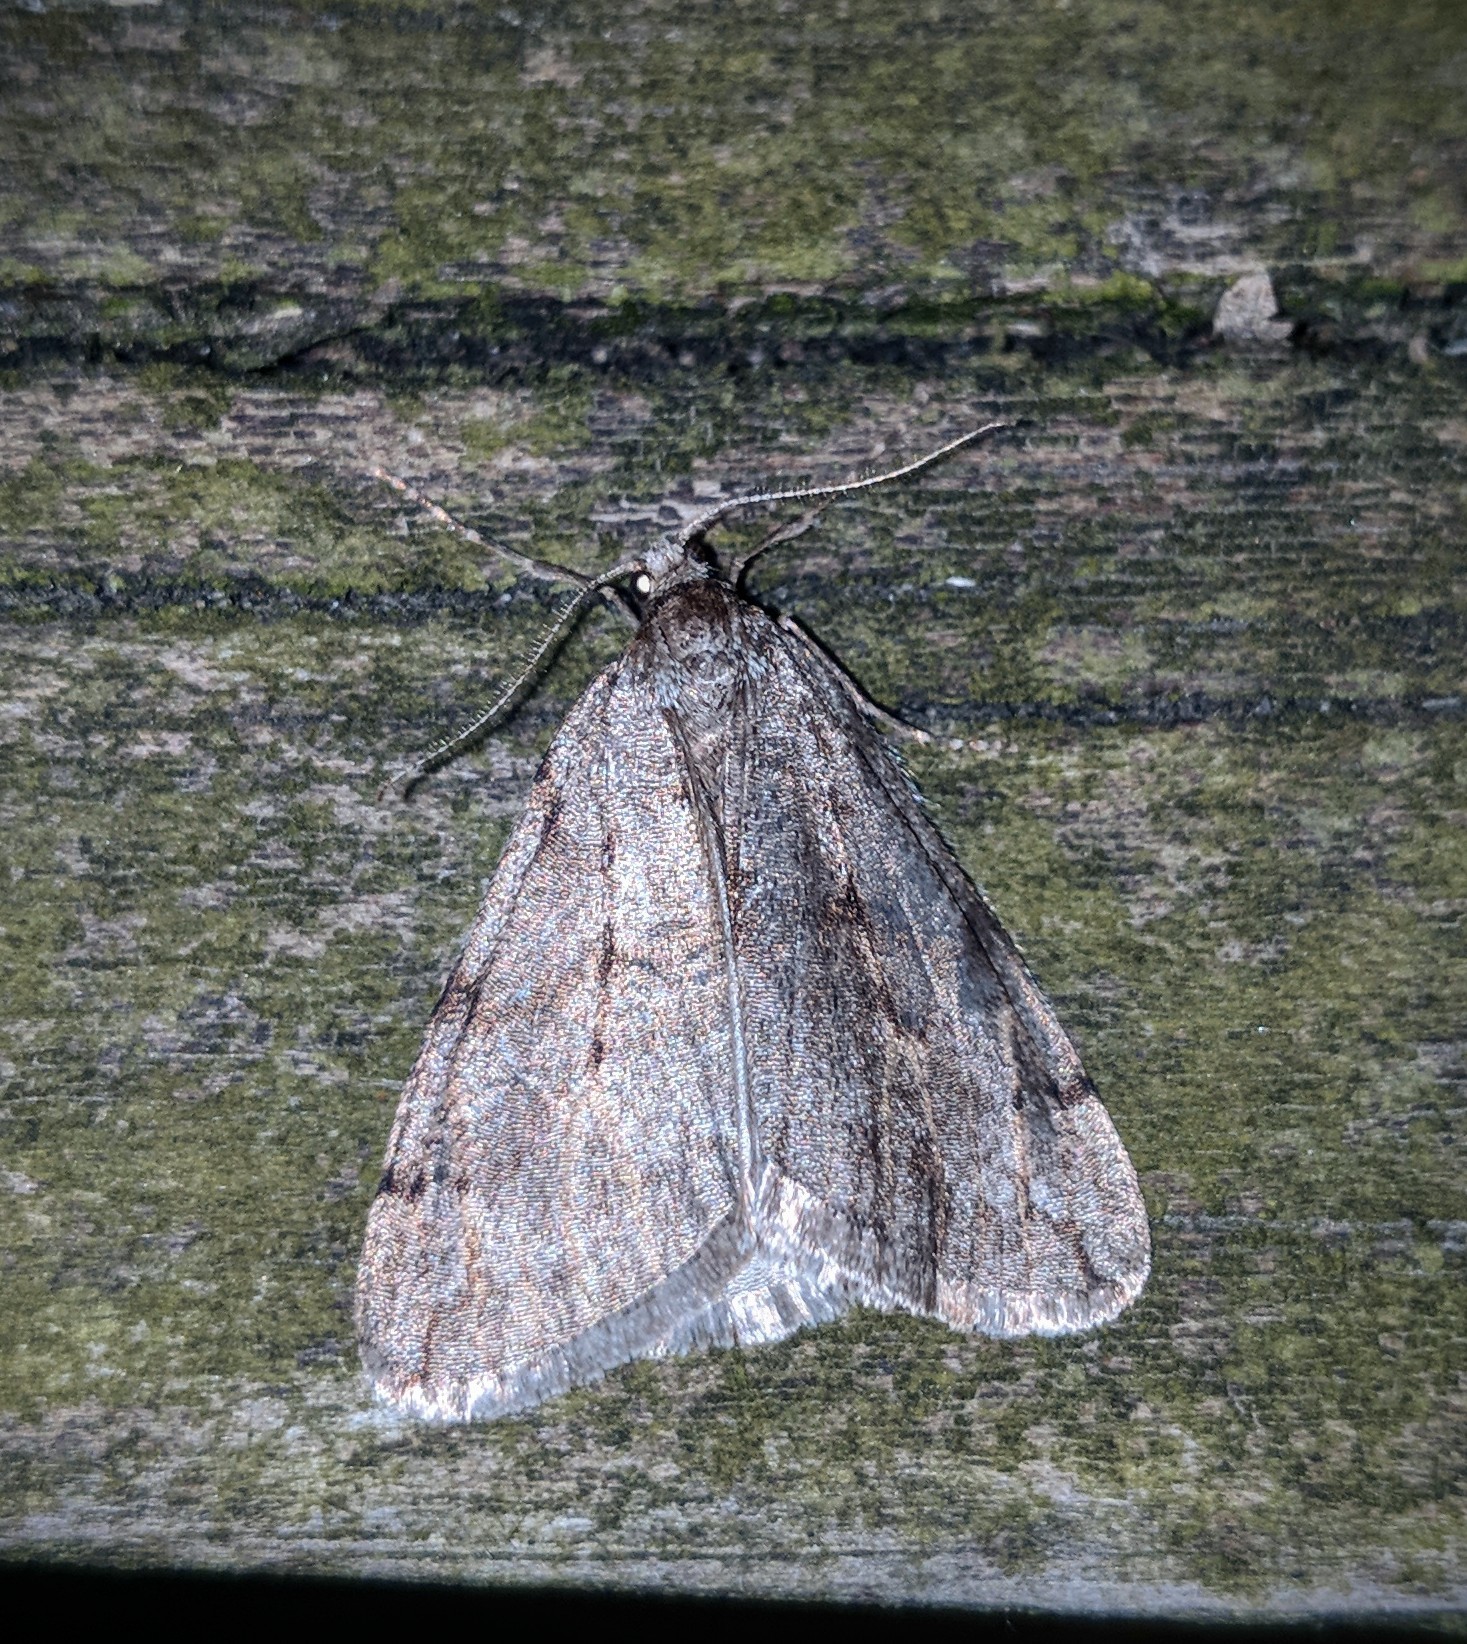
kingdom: Animalia
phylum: Arthropoda
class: Insecta
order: Lepidoptera
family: Geometridae
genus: Paleacrita
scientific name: Paleacrita vernata
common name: Spring cankerworm
